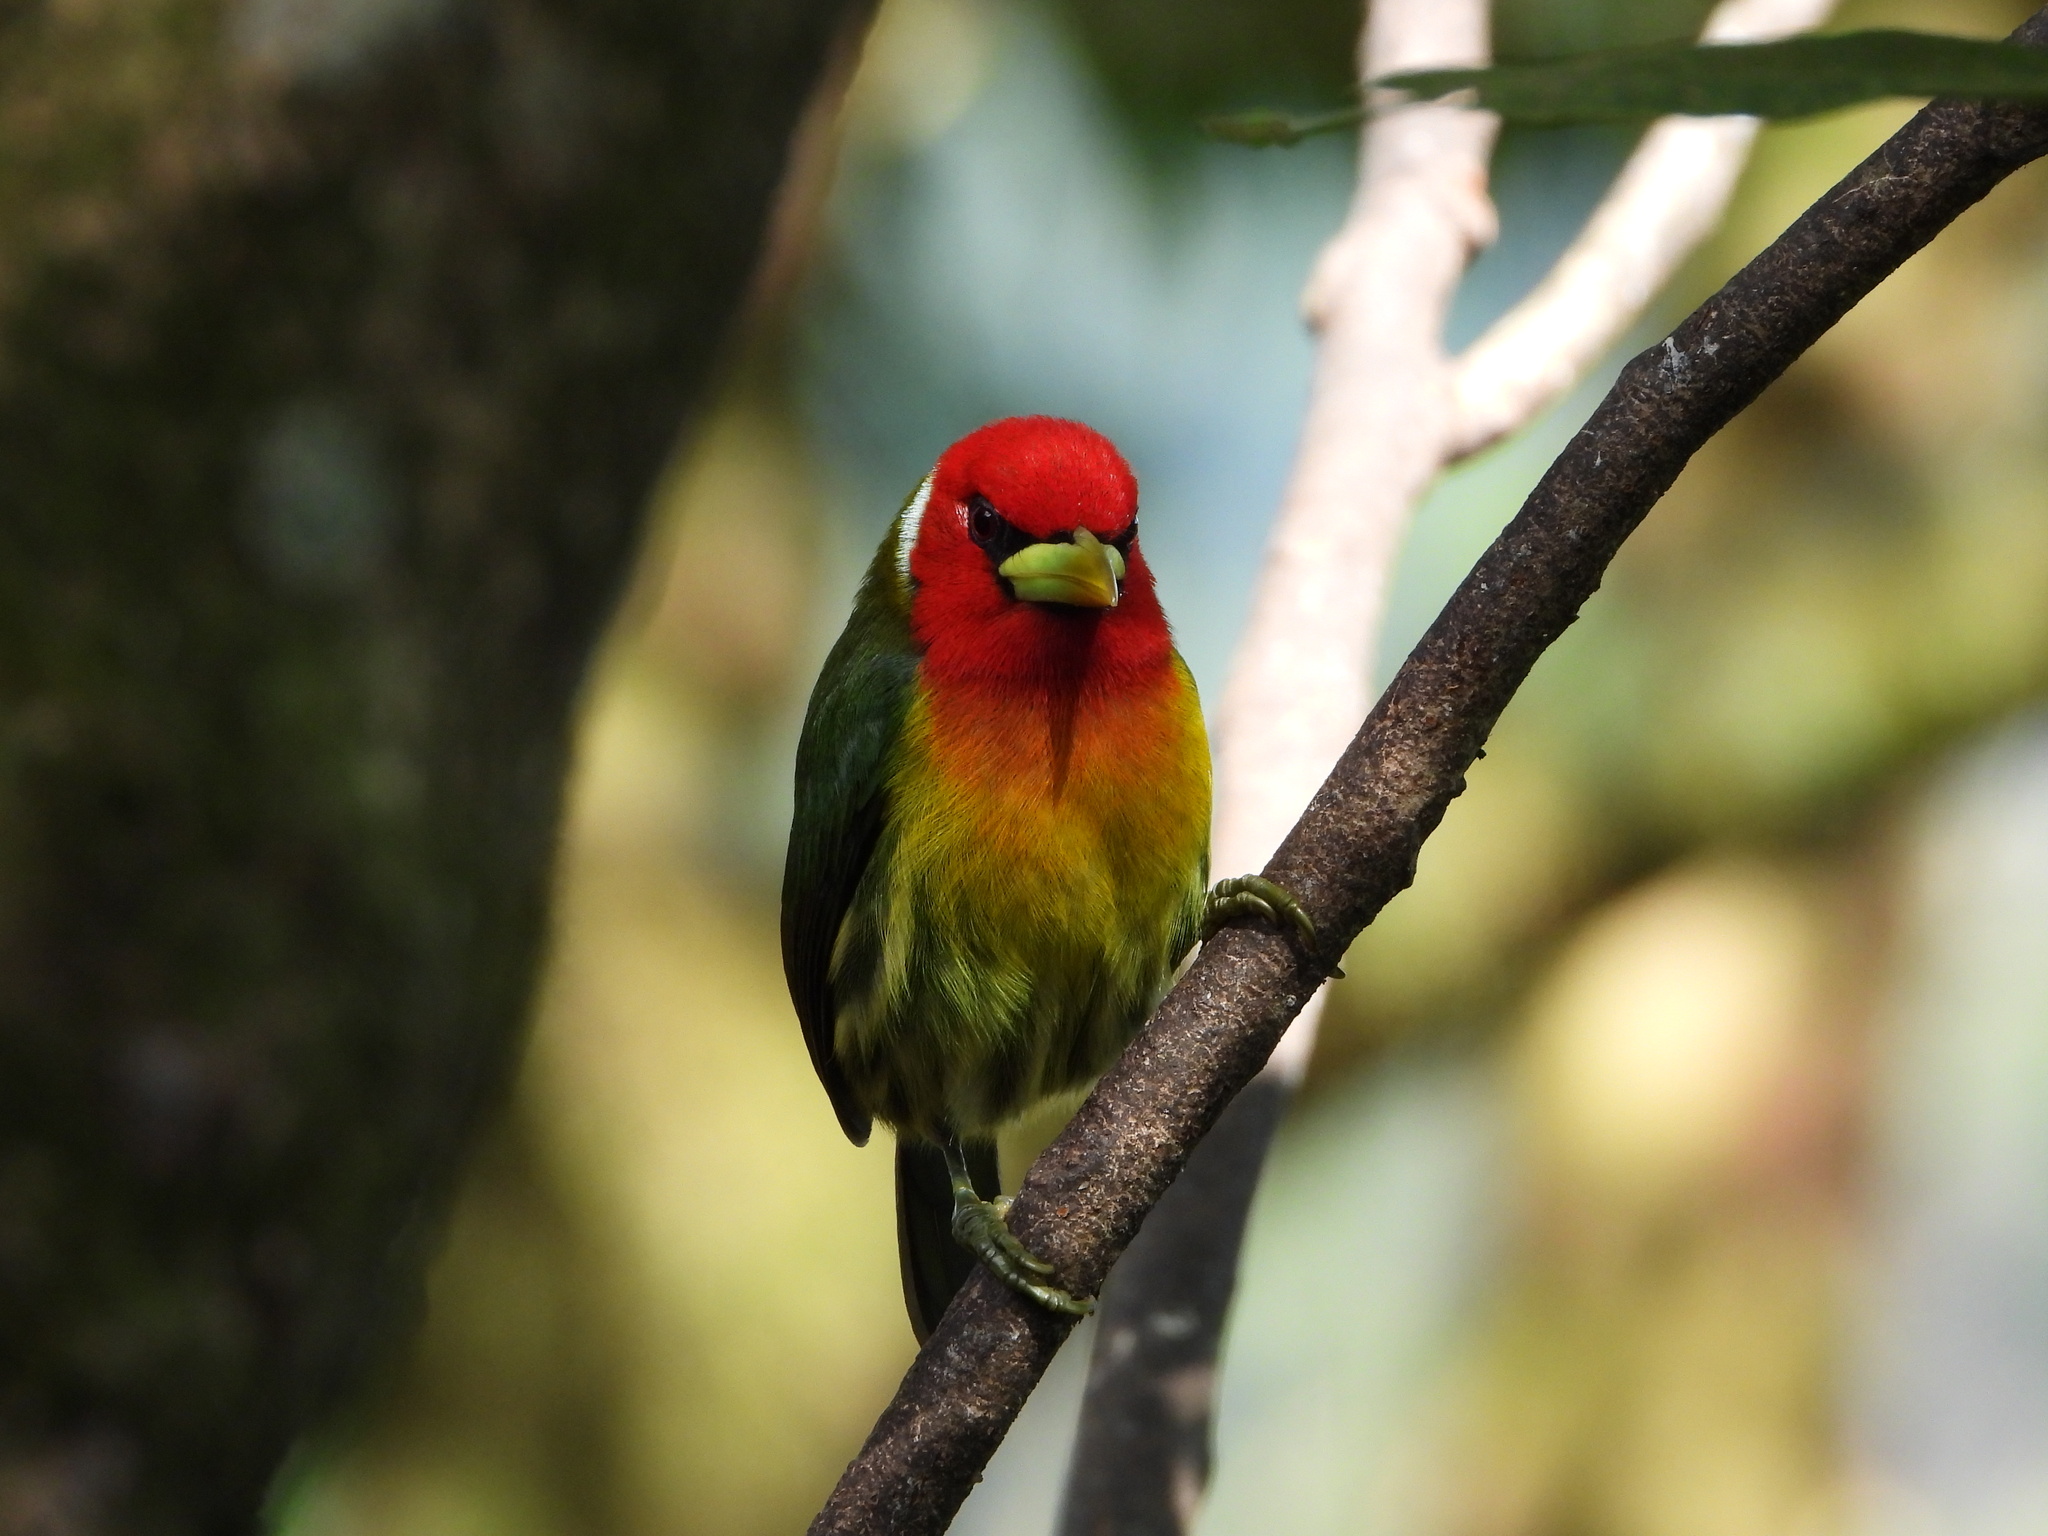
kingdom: Animalia
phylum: Chordata
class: Aves
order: Piciformes
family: Capitonidae
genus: Eubucco
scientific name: Eubucco bourcierii
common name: Red-headed barbet
